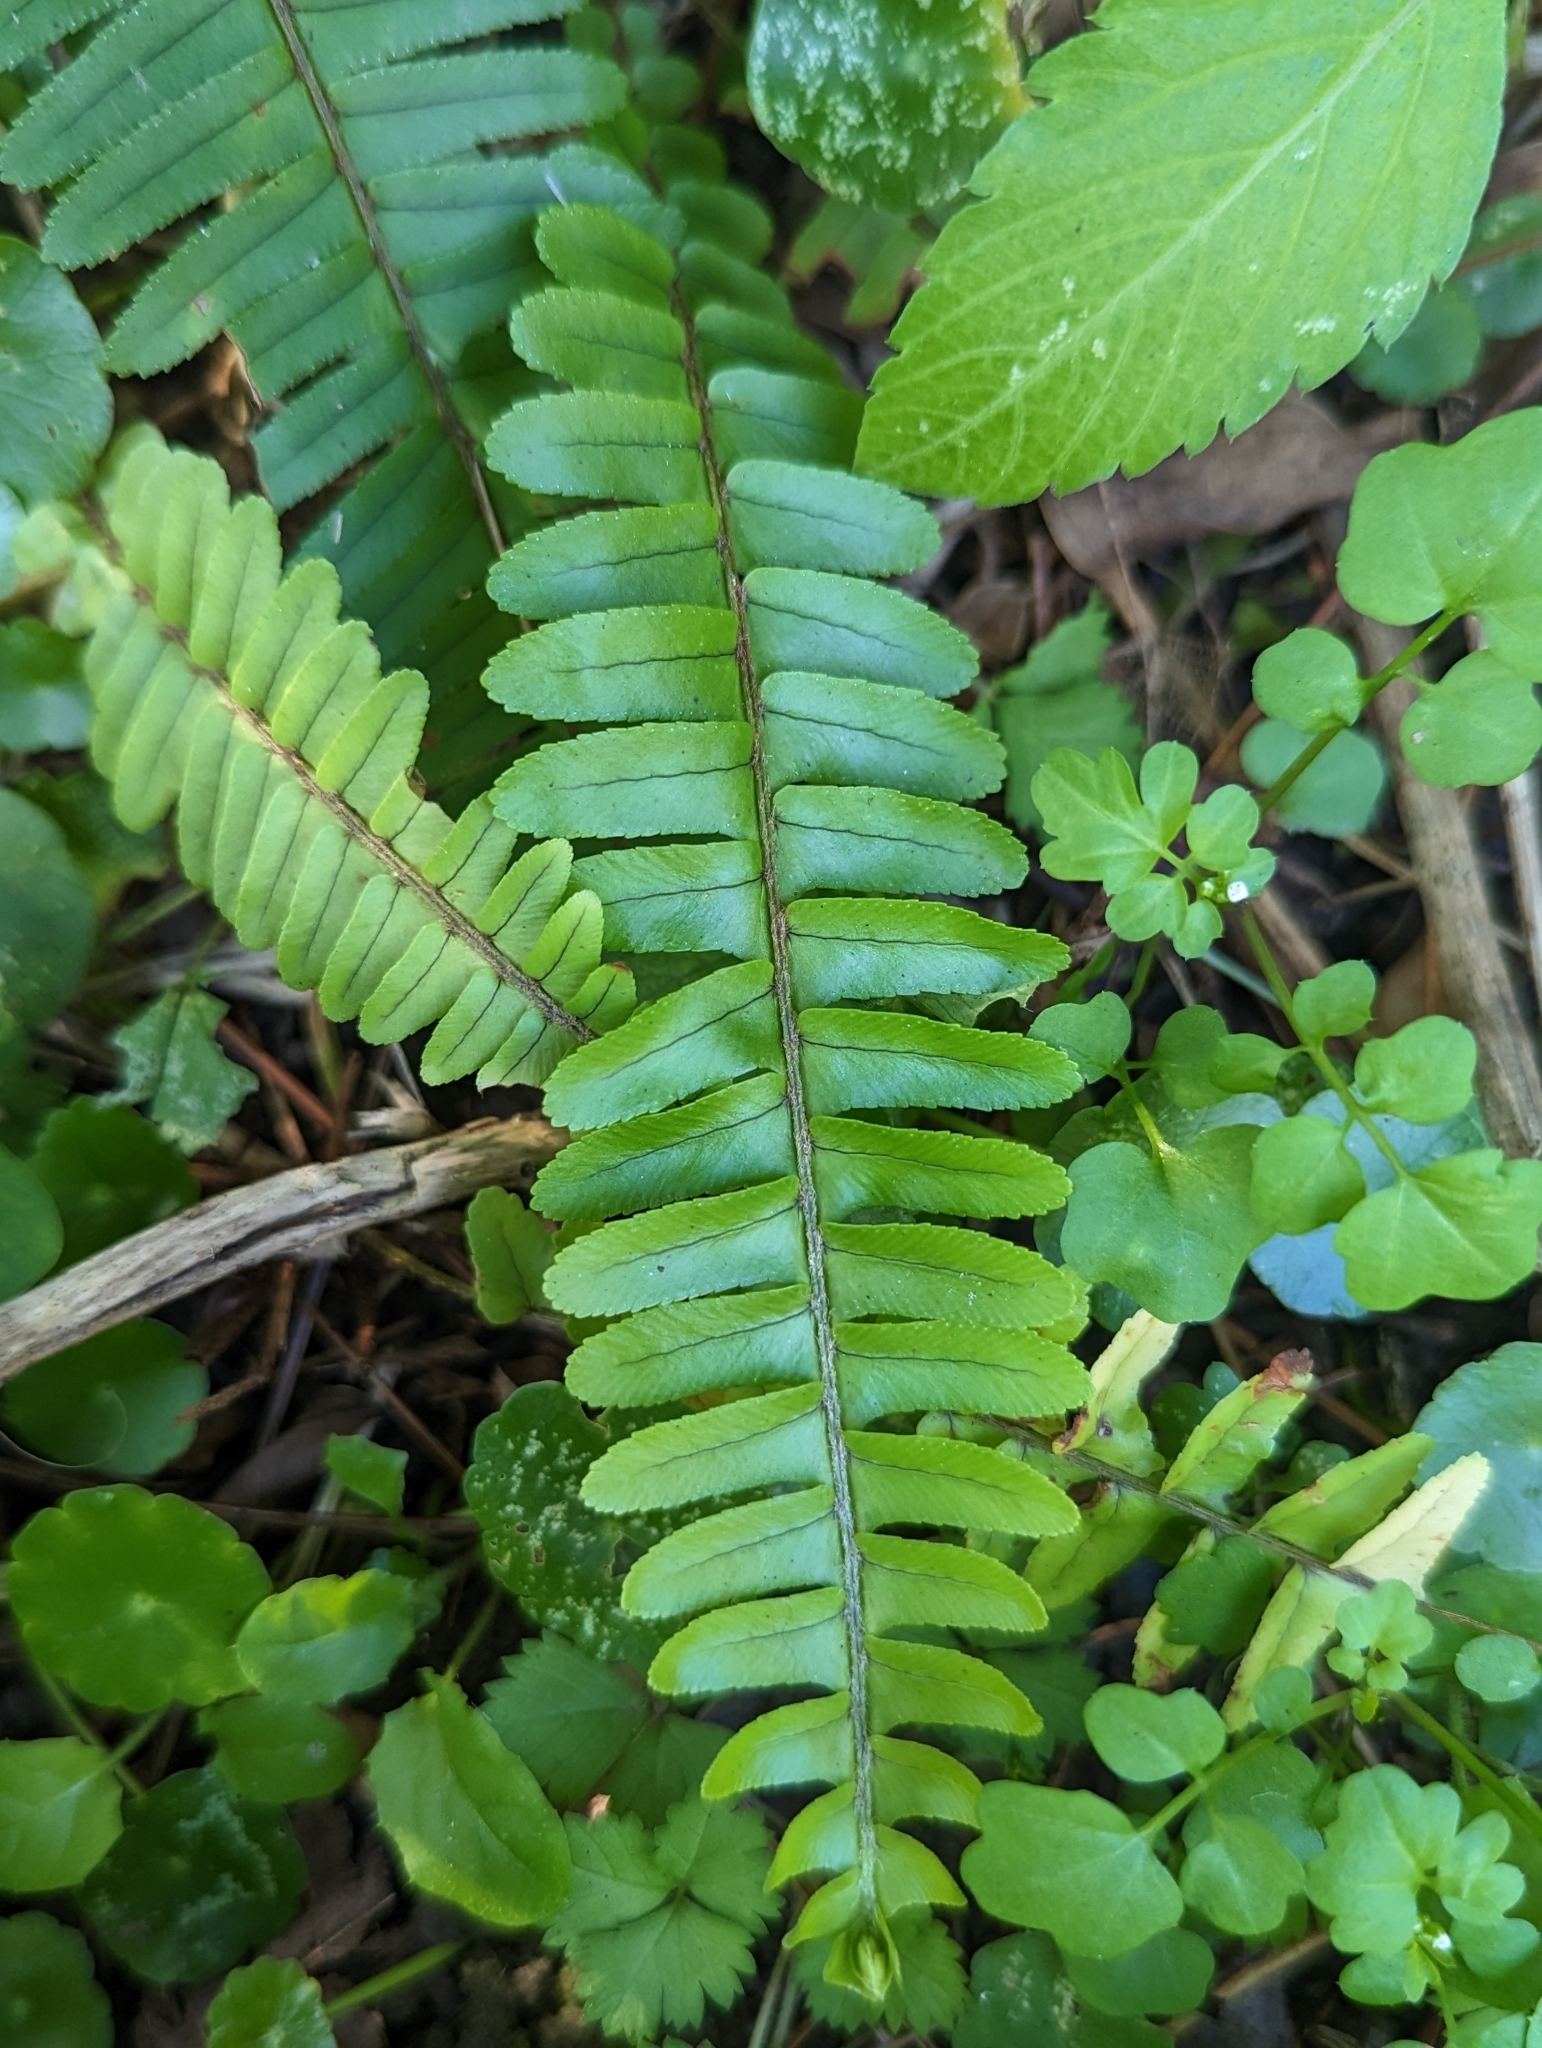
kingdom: Plantae
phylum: Tracheophyta
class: Polypodiopsida
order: Polypodiales
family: Nephrolepidaceae
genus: Nephrolepis
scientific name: Nephrolepis cordifolia
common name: Narrow swordfern
